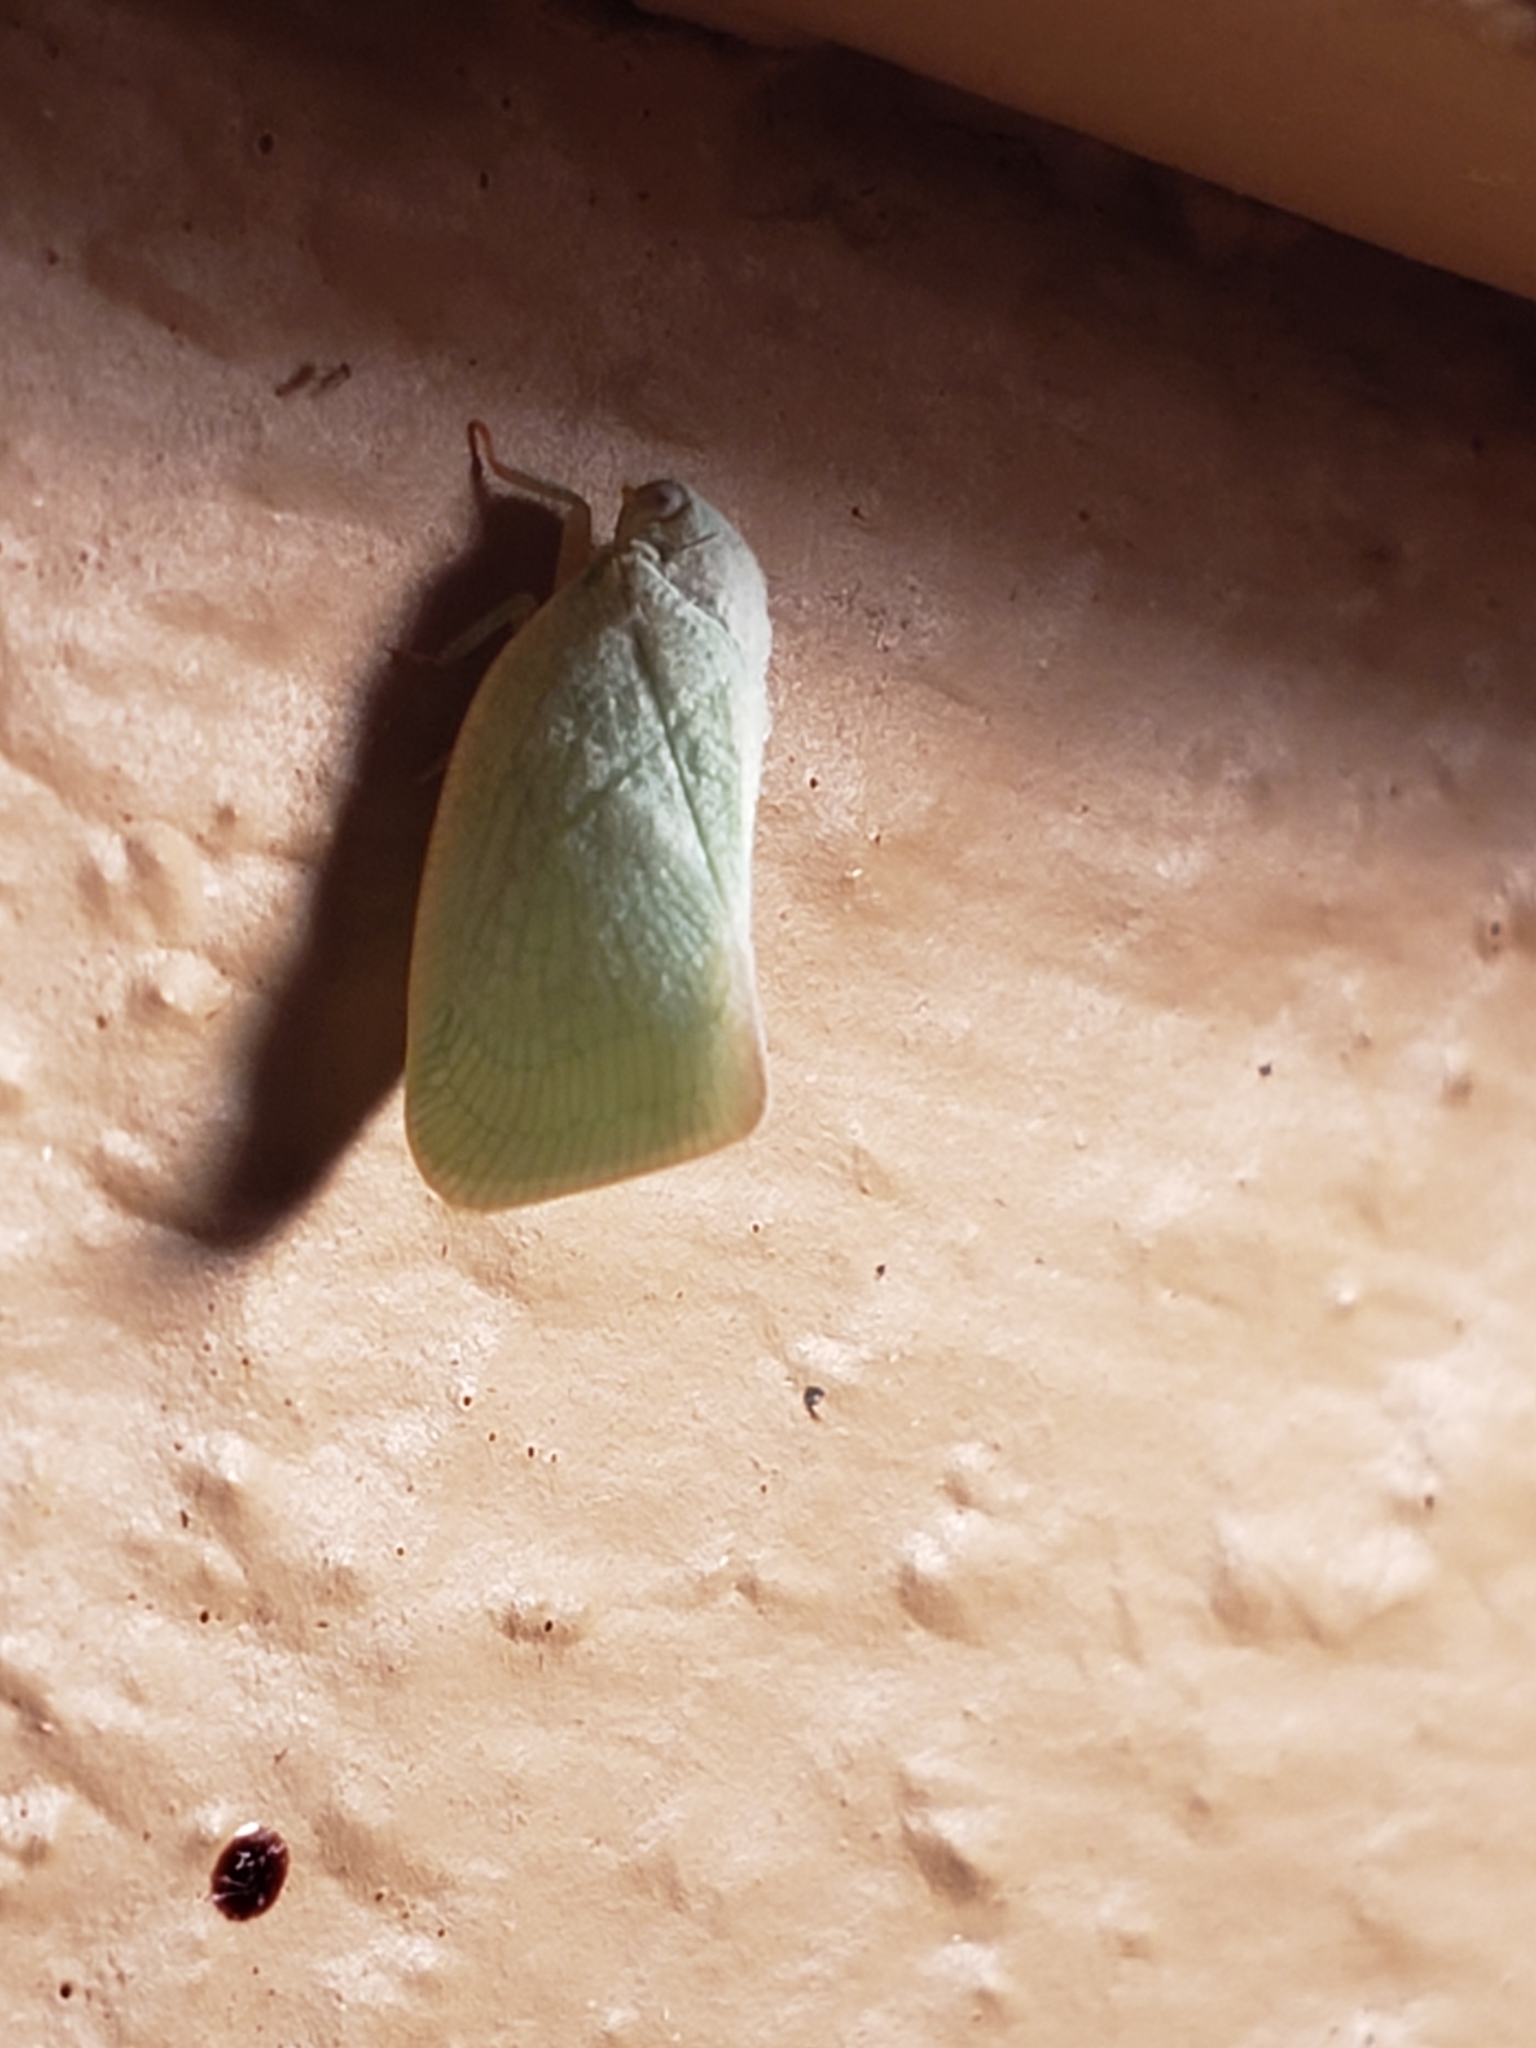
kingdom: Animalia
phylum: Arthropoda
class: Insecta
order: Hemiptera
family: Flatidae
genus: Flatormenis
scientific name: Flatormenis proxima
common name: Northern flatid planthopper
